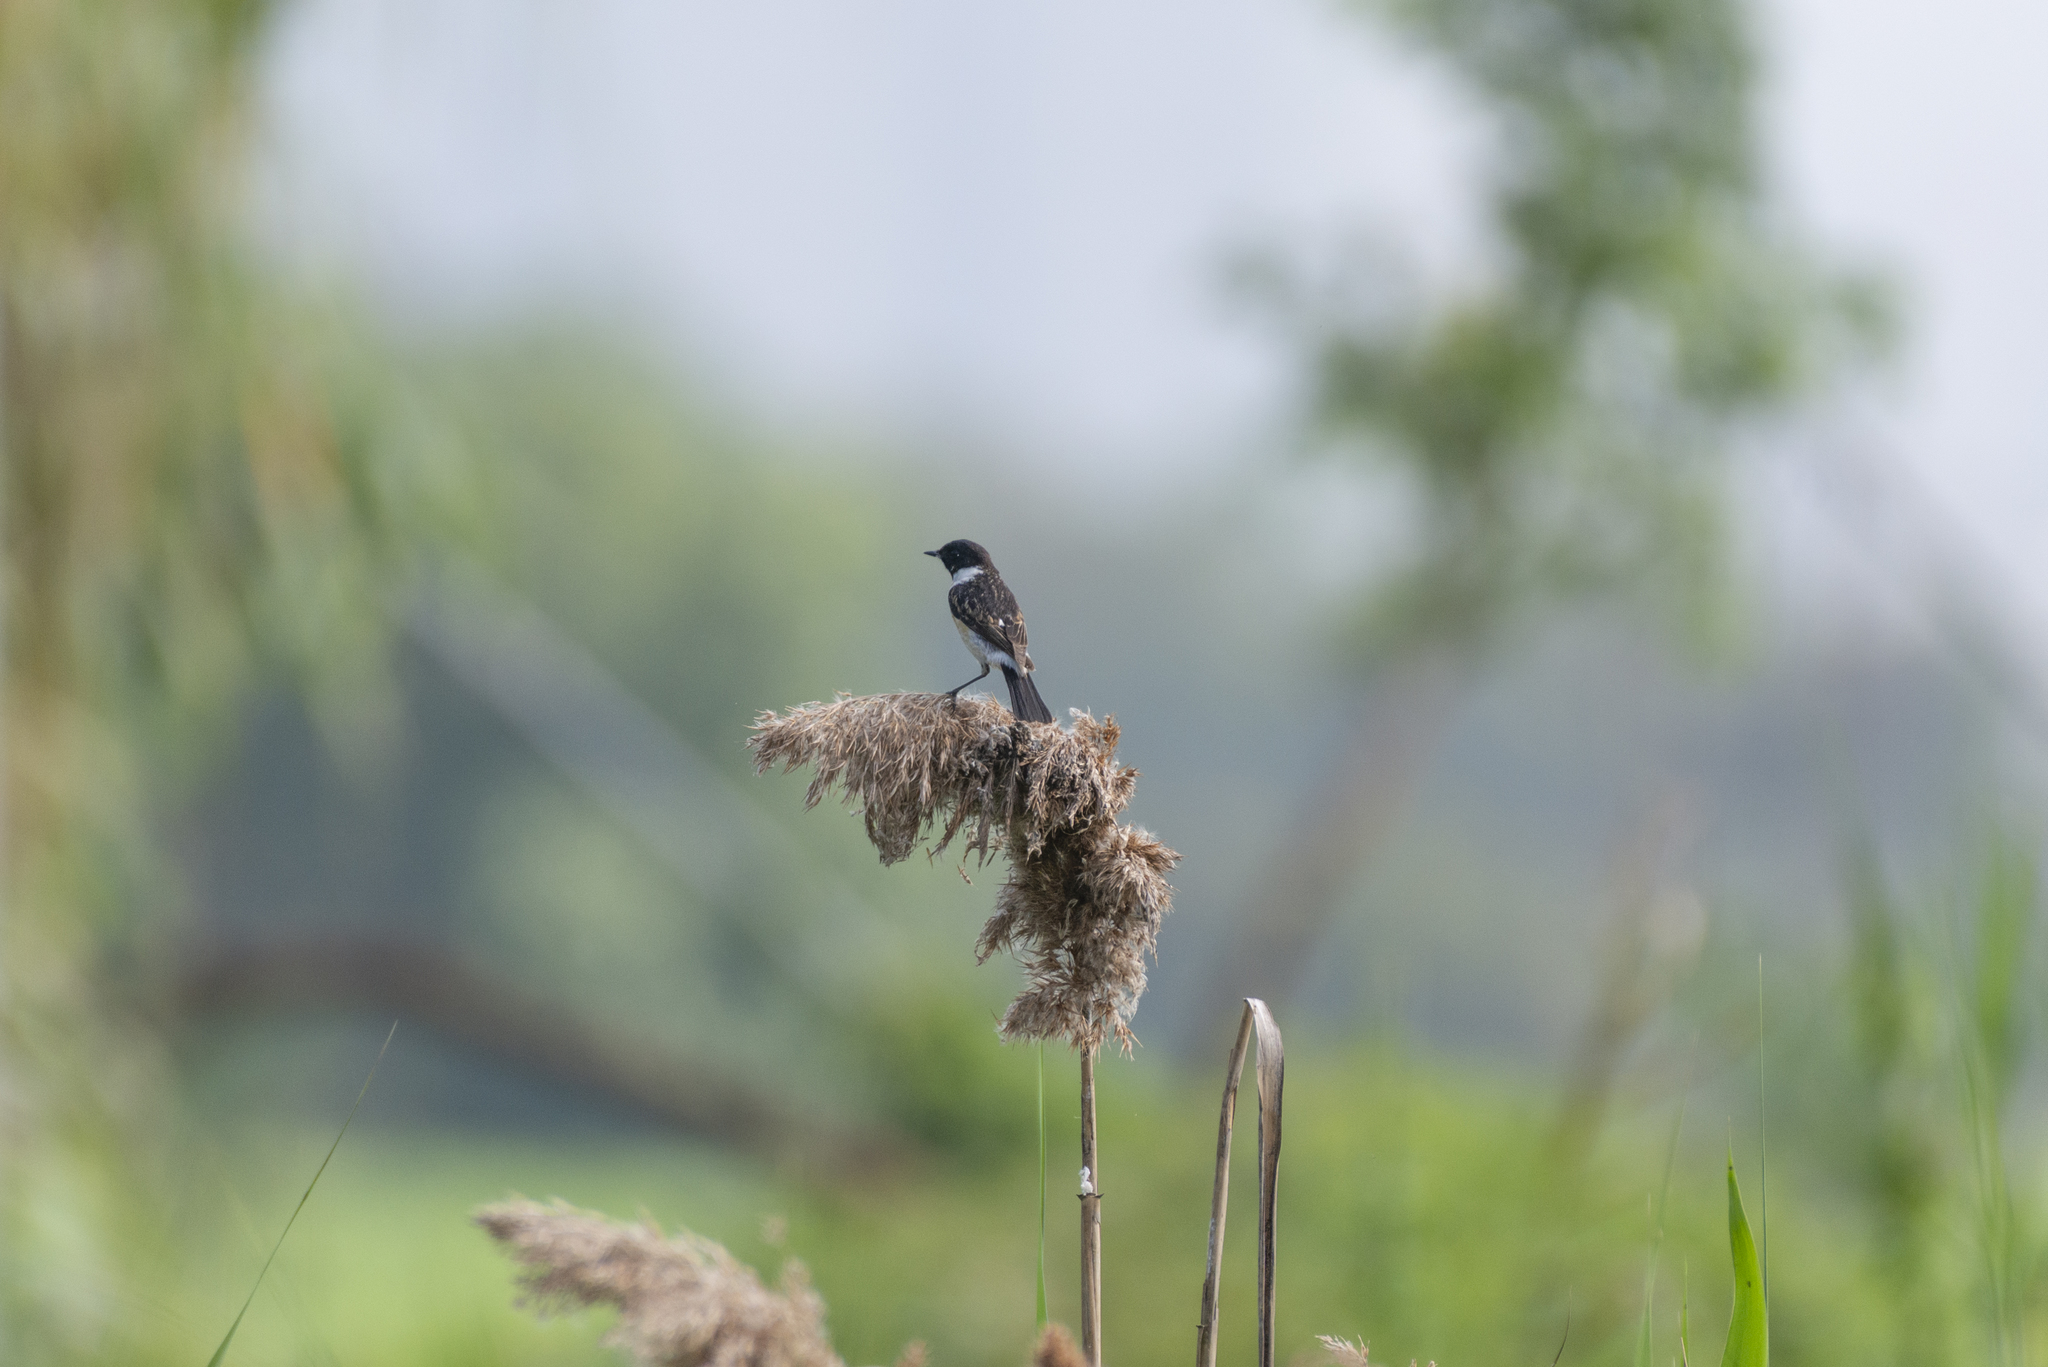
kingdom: Animalia
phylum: Chordata
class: Aves
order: Passeriformes
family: Muscicapidae
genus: Saxicola
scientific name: Saxicola stejnegeri
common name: Stejneger's stonechat
